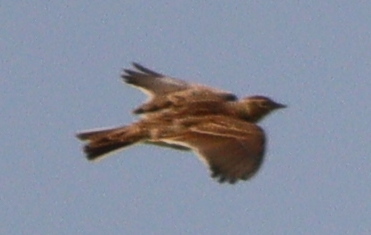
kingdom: Animalia
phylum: Chordata
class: Aves
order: Passeriformes
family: Alaudidae
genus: Alauda
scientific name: Alauda arvensis
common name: Eurasian skylark
